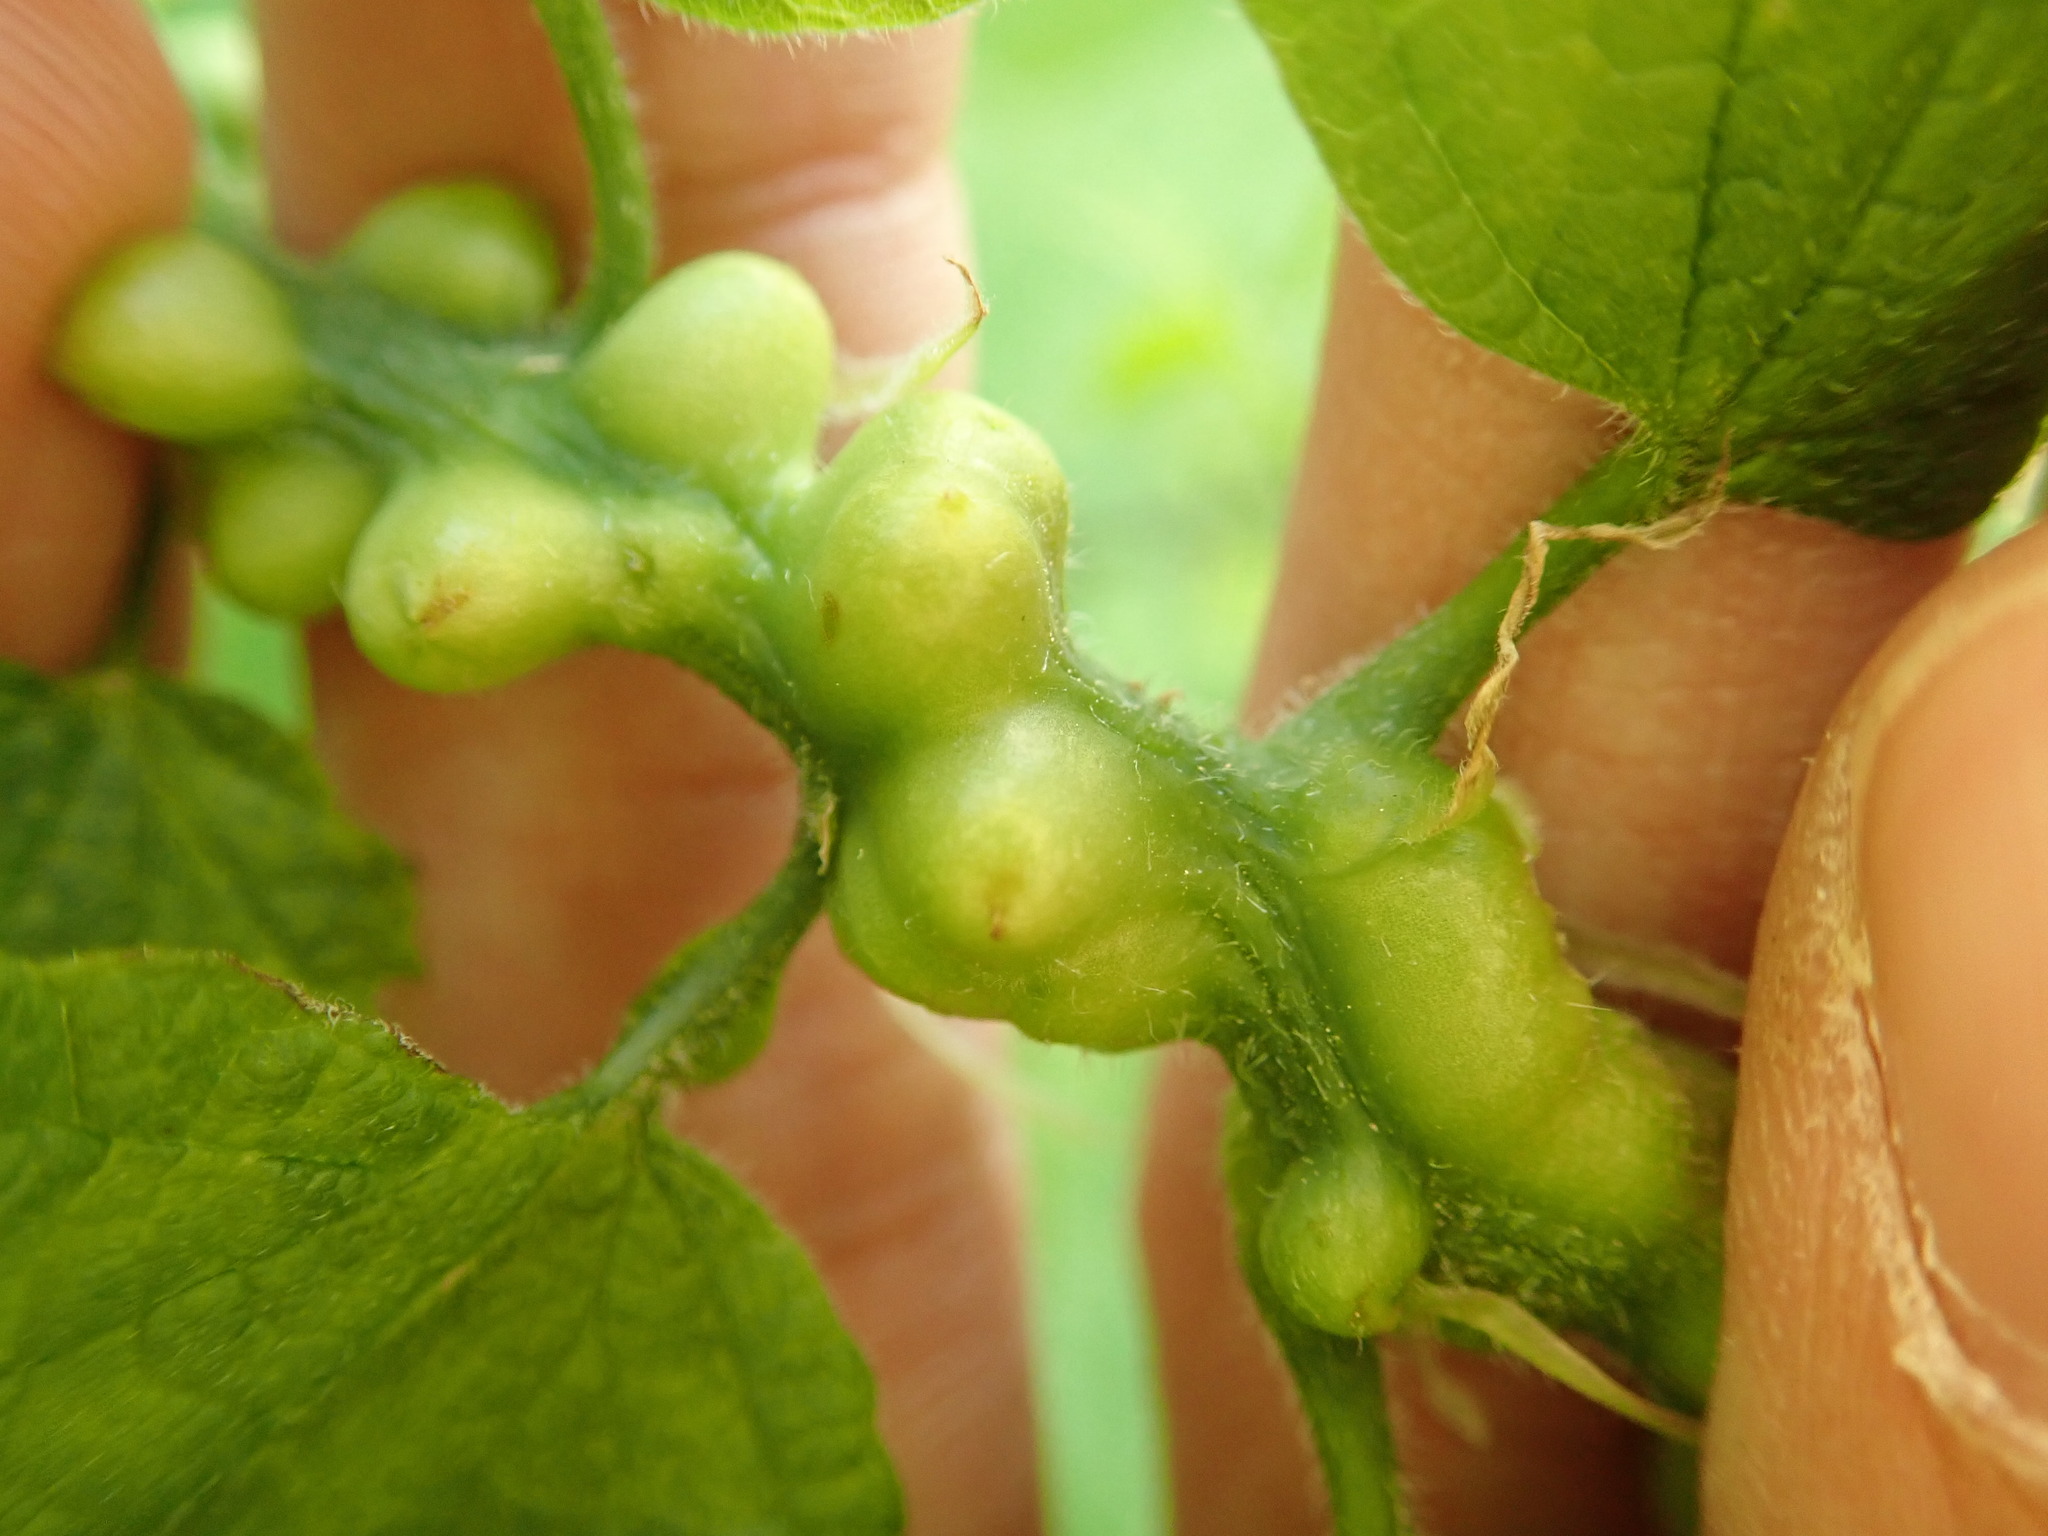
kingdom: Animalia
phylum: Arthropoda
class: Insecta
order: Diptera
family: Cecidomyiidae
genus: Celticecis
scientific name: Celticecis expulsa
